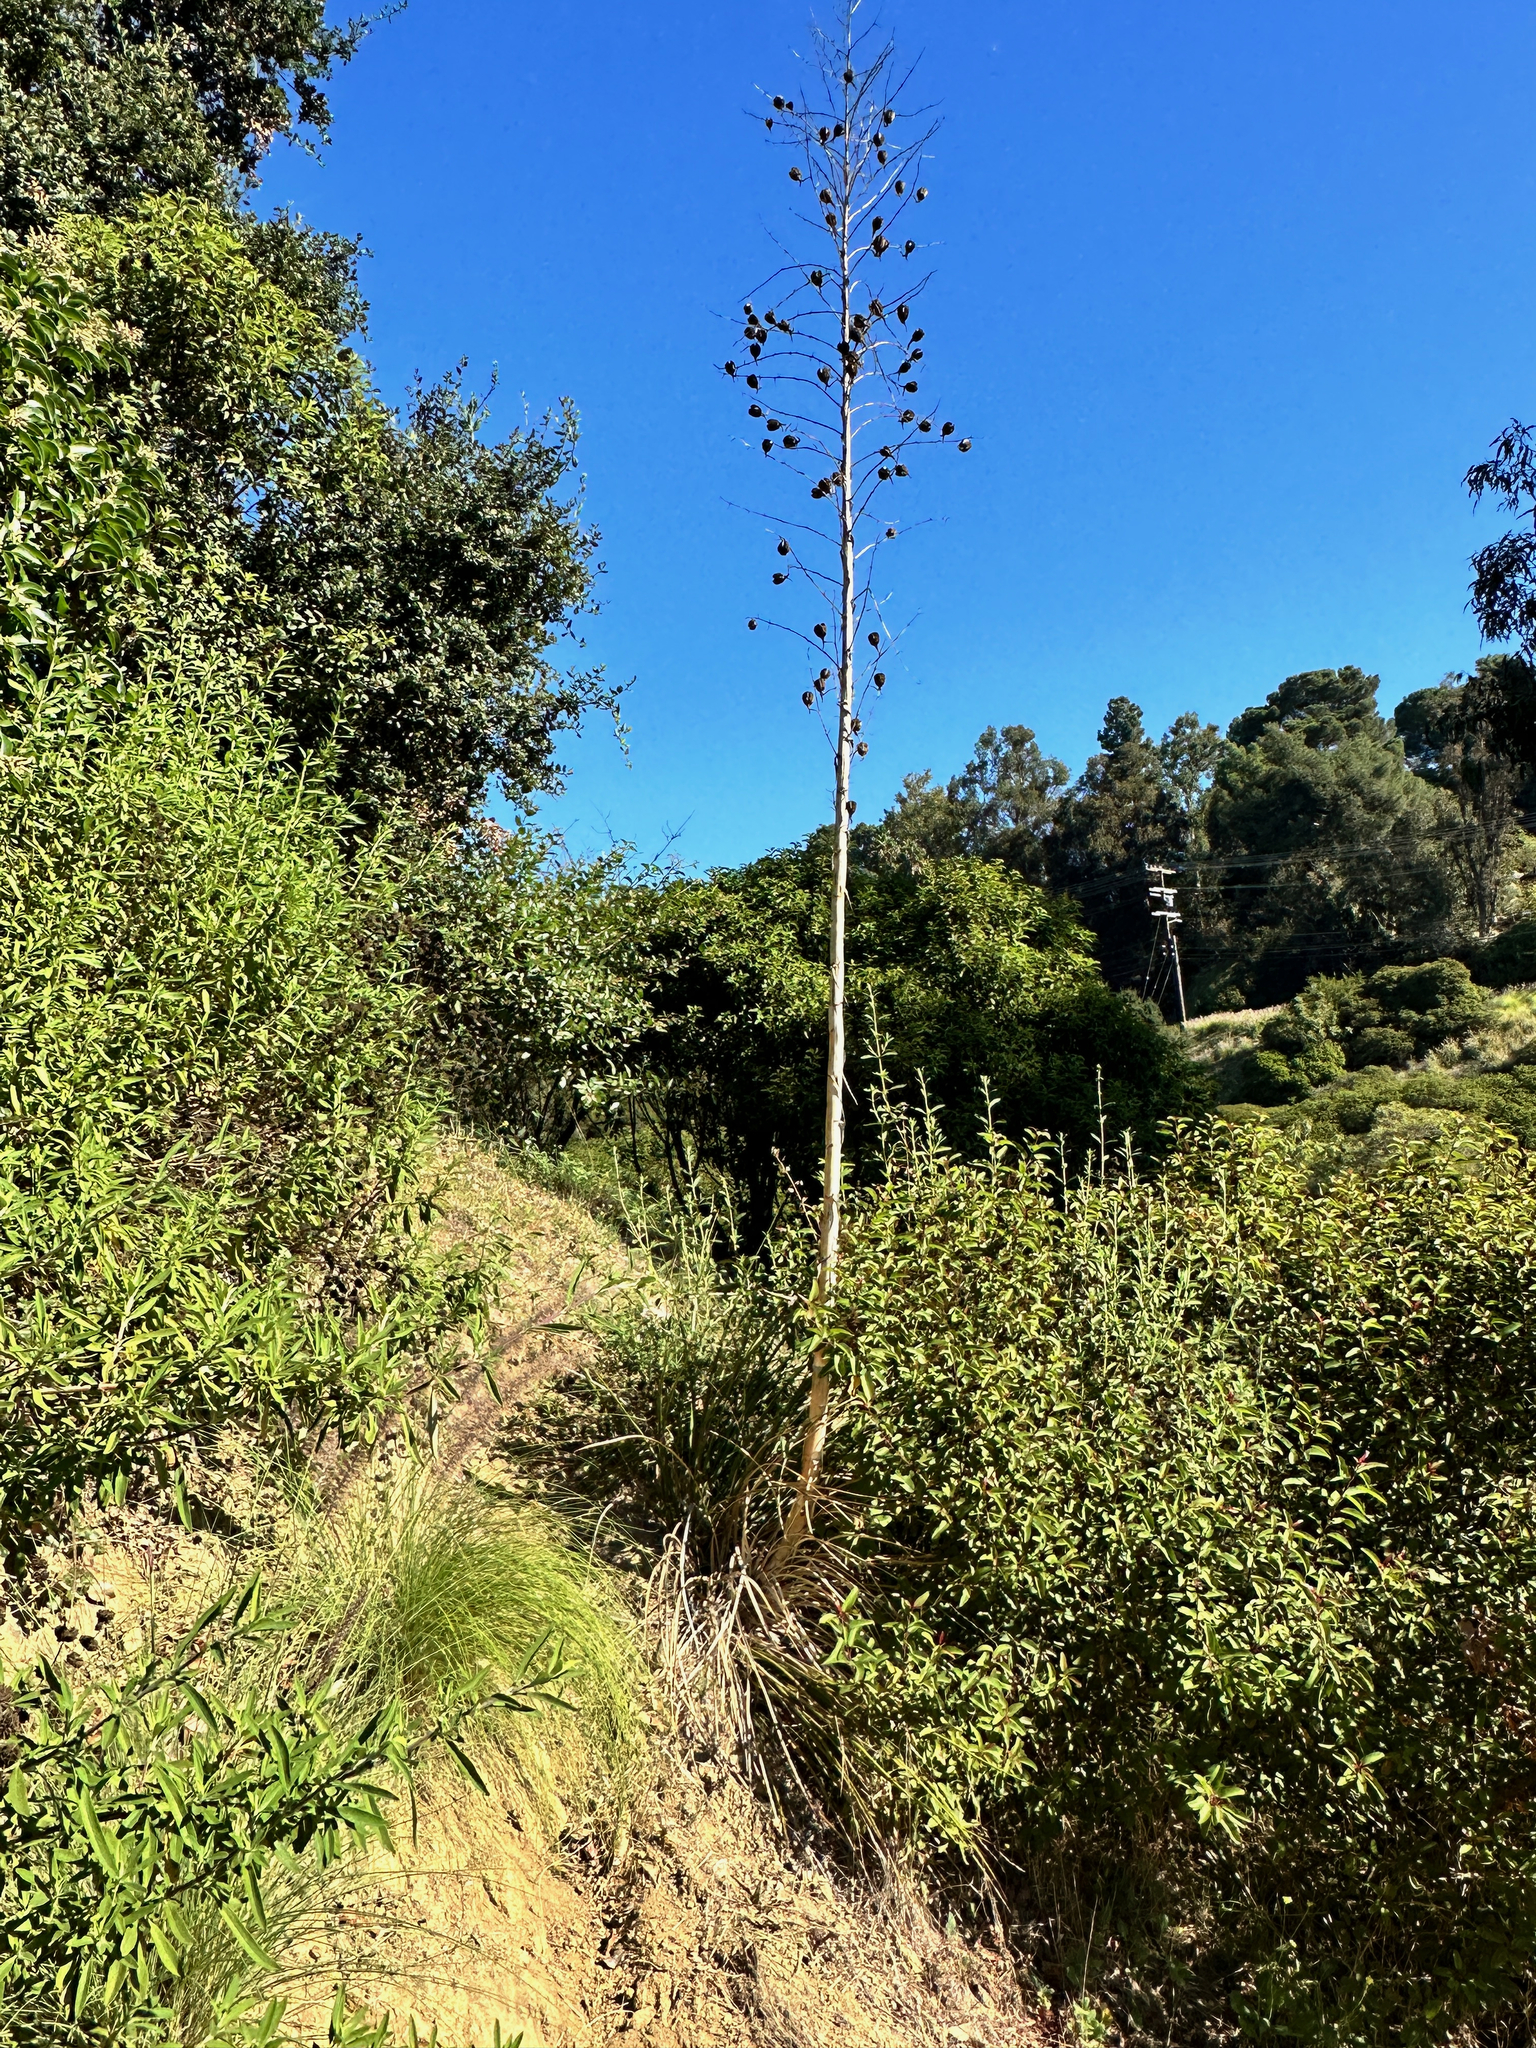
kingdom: Plantae
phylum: Tracheophyta
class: Liliopsida
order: Asparagales
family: Asparagaceae
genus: Hesperoyucca
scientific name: Hesperoyucca whipplei
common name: Our lord's-candle
